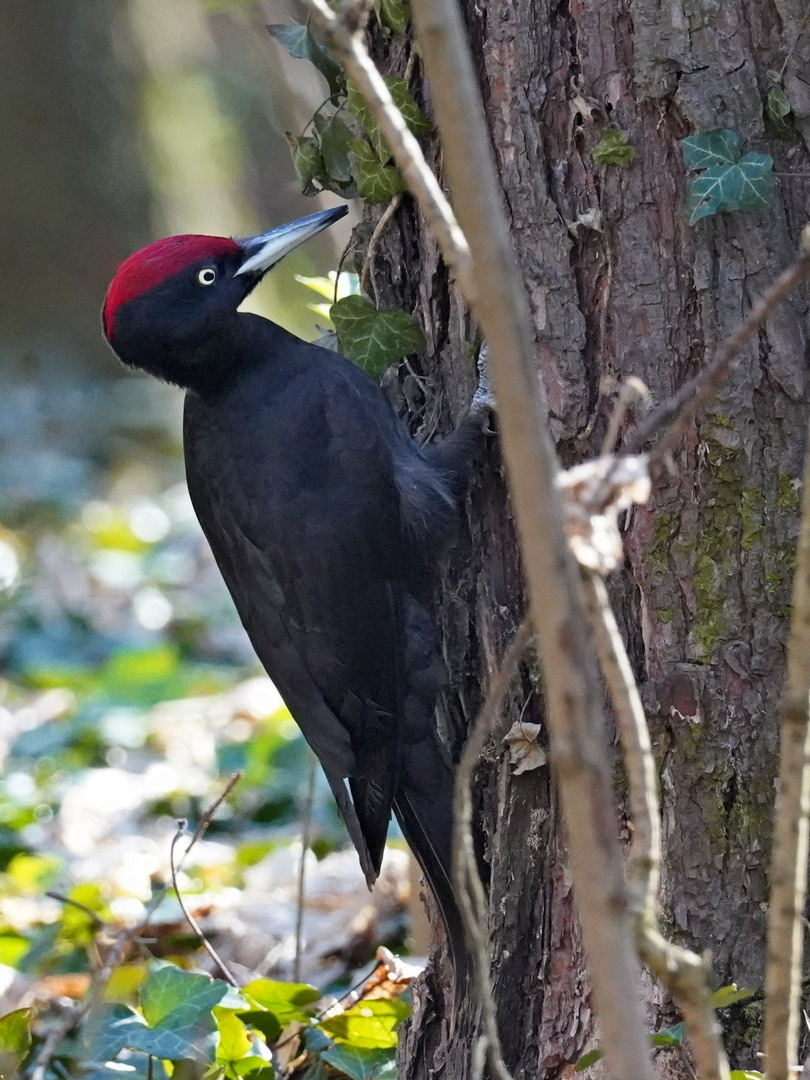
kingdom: Animalia
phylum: Chordata
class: Aves
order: Piciformes
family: Picidae
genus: Dryocopus
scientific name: Dryocopus martius
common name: Black woodpecker
